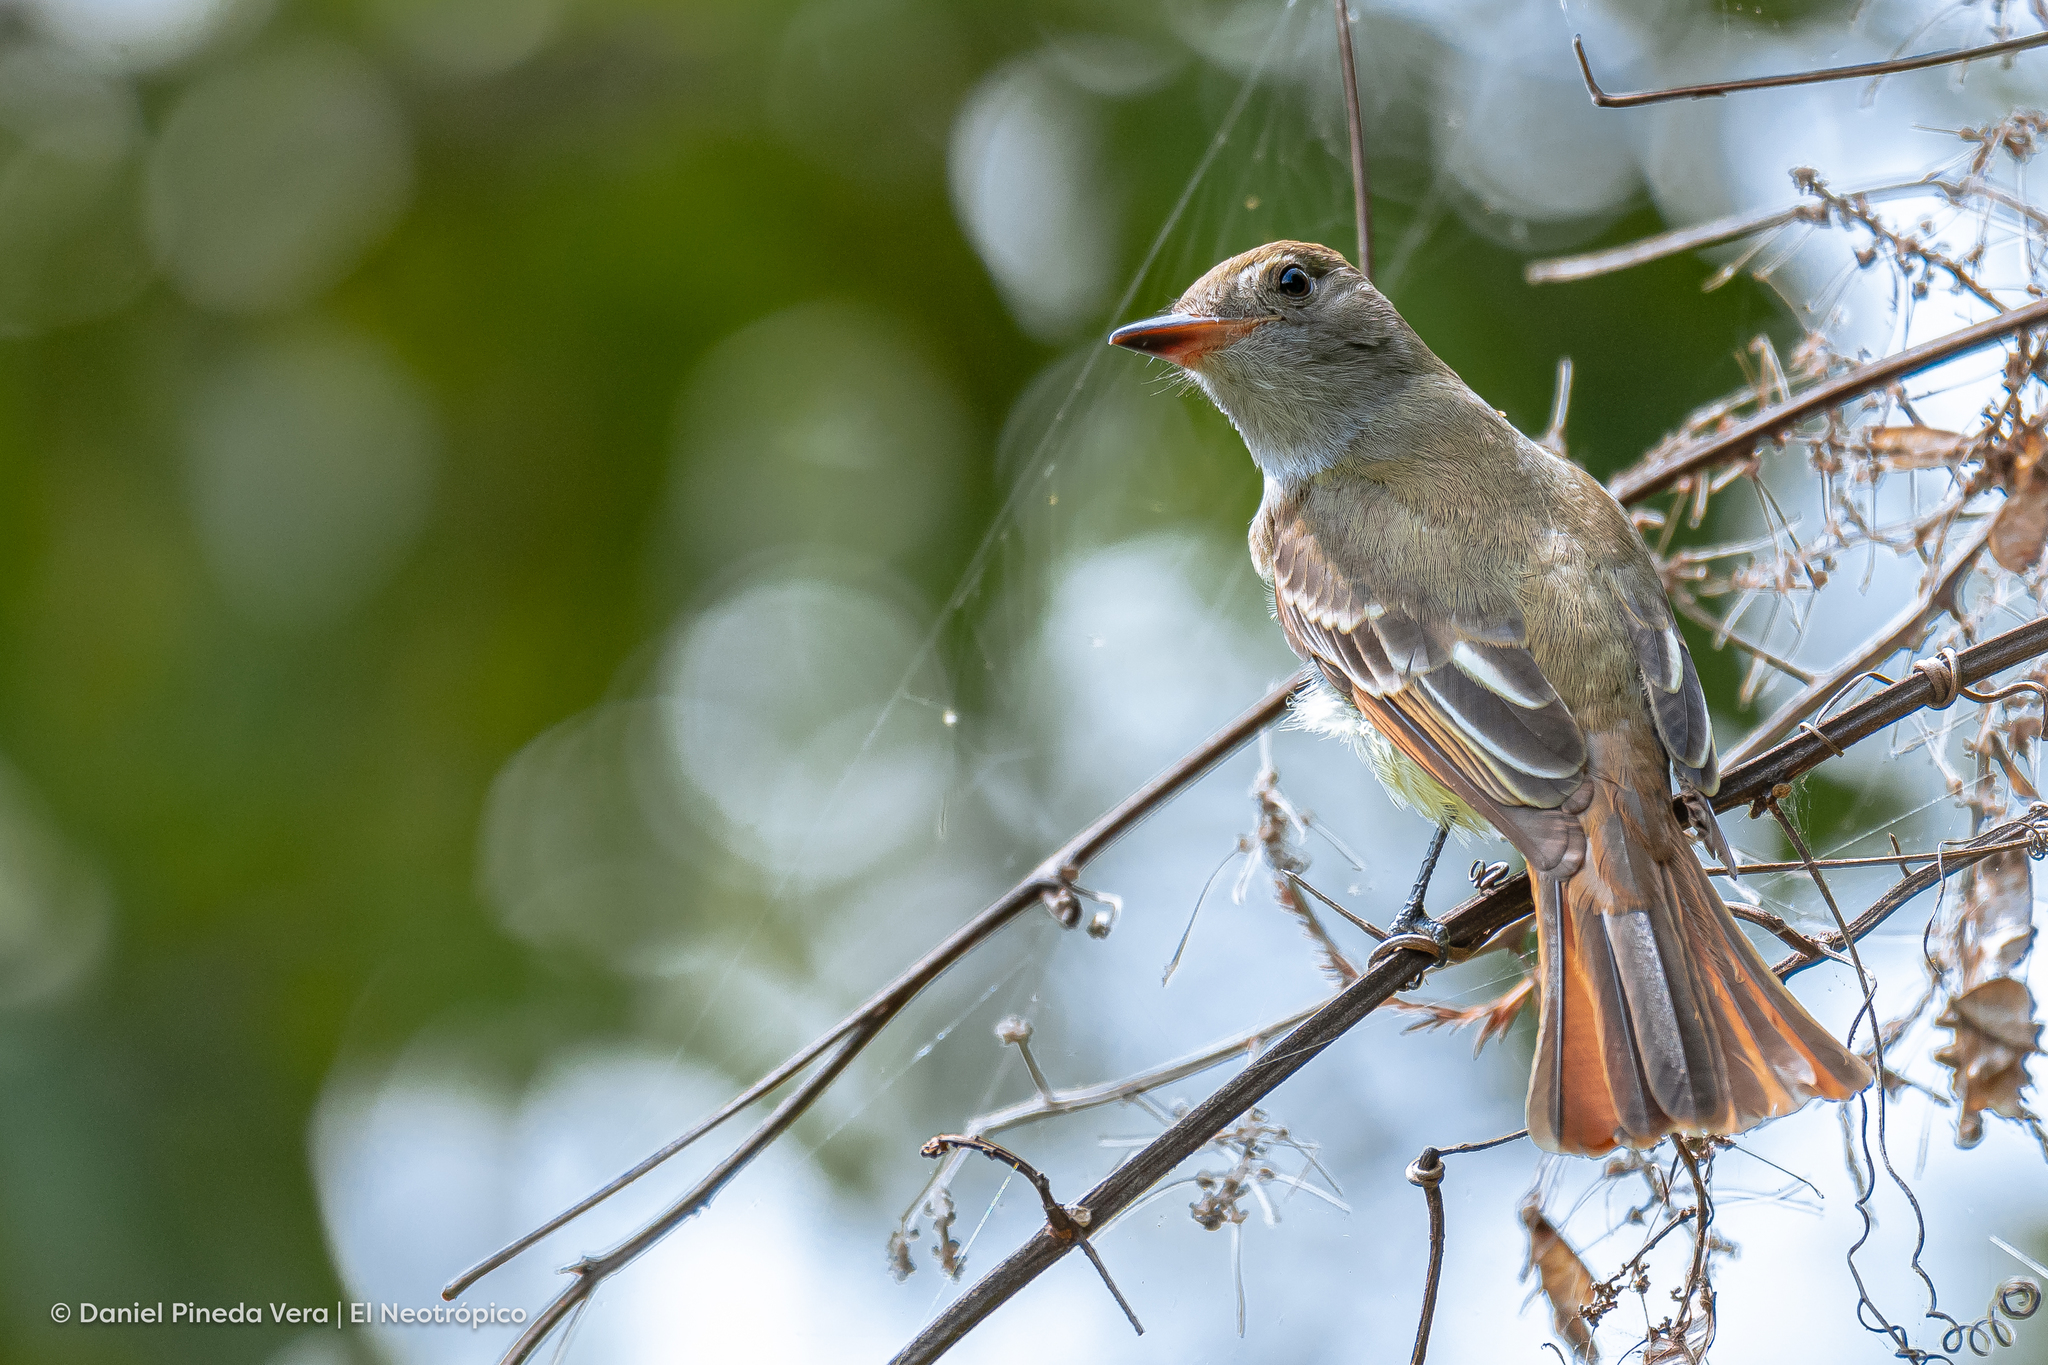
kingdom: Animalia
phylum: Chordata
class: Aves
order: Passeriformes
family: Tyrannidae
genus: Myiarchus
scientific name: Myiarchus crinitus
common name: Great crested flycatcher
